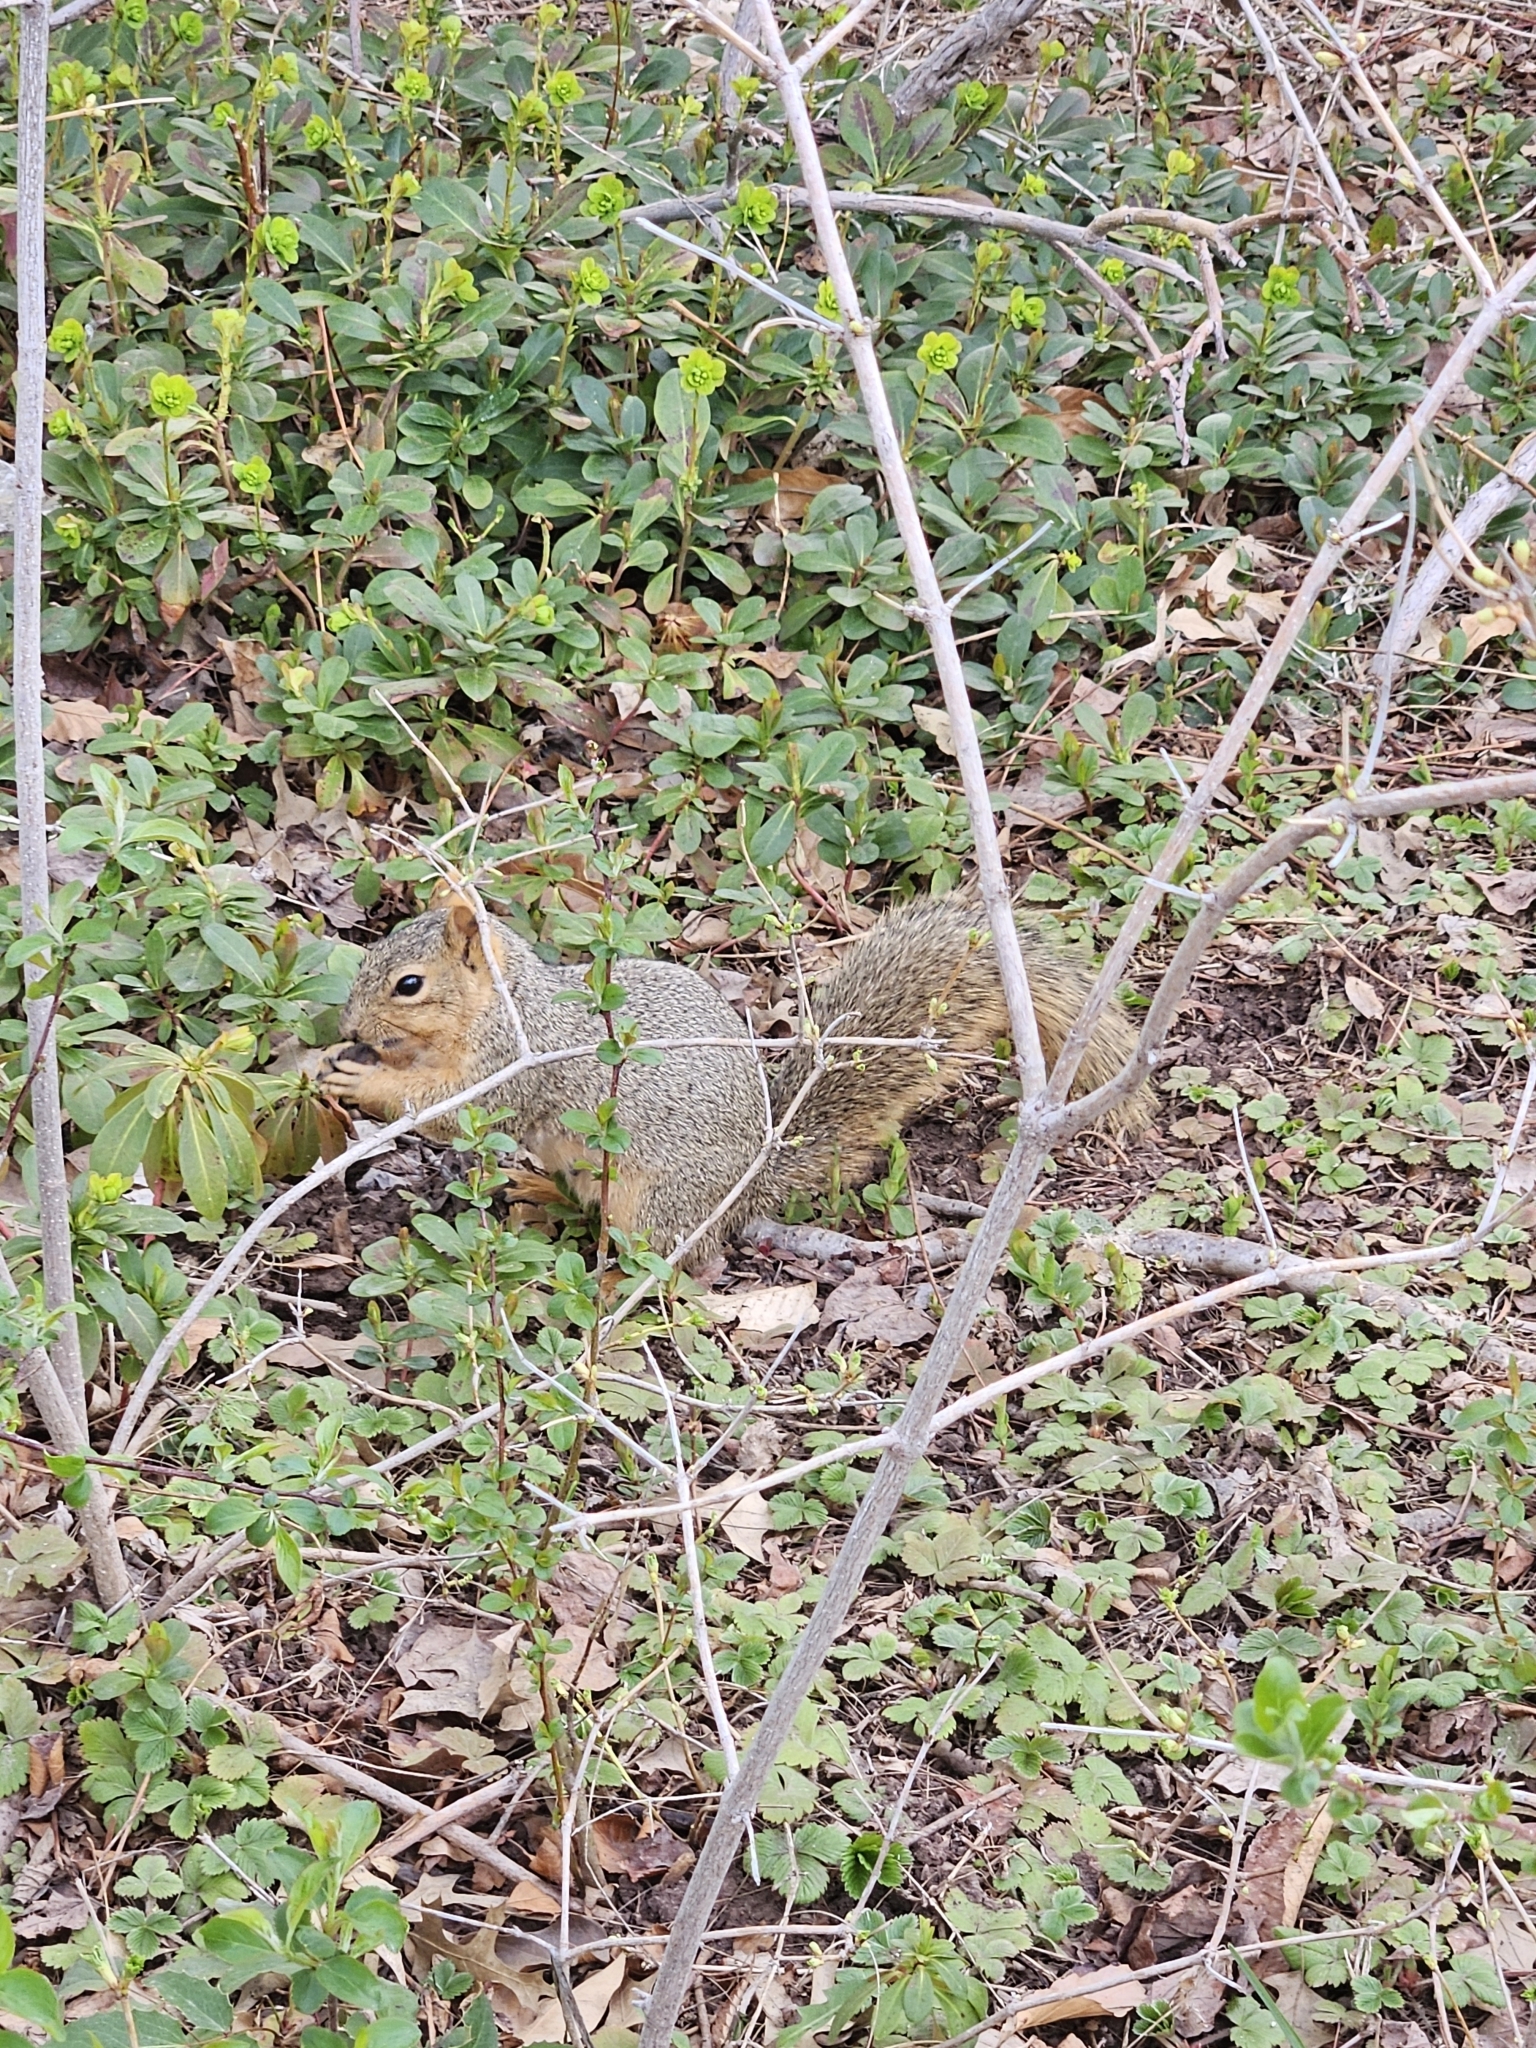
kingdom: Animalia
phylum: Chordata
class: Mammalia
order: Rodentia
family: Sciuridae
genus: Sciurus
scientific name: Sciurus niger
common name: Fox squirrel
